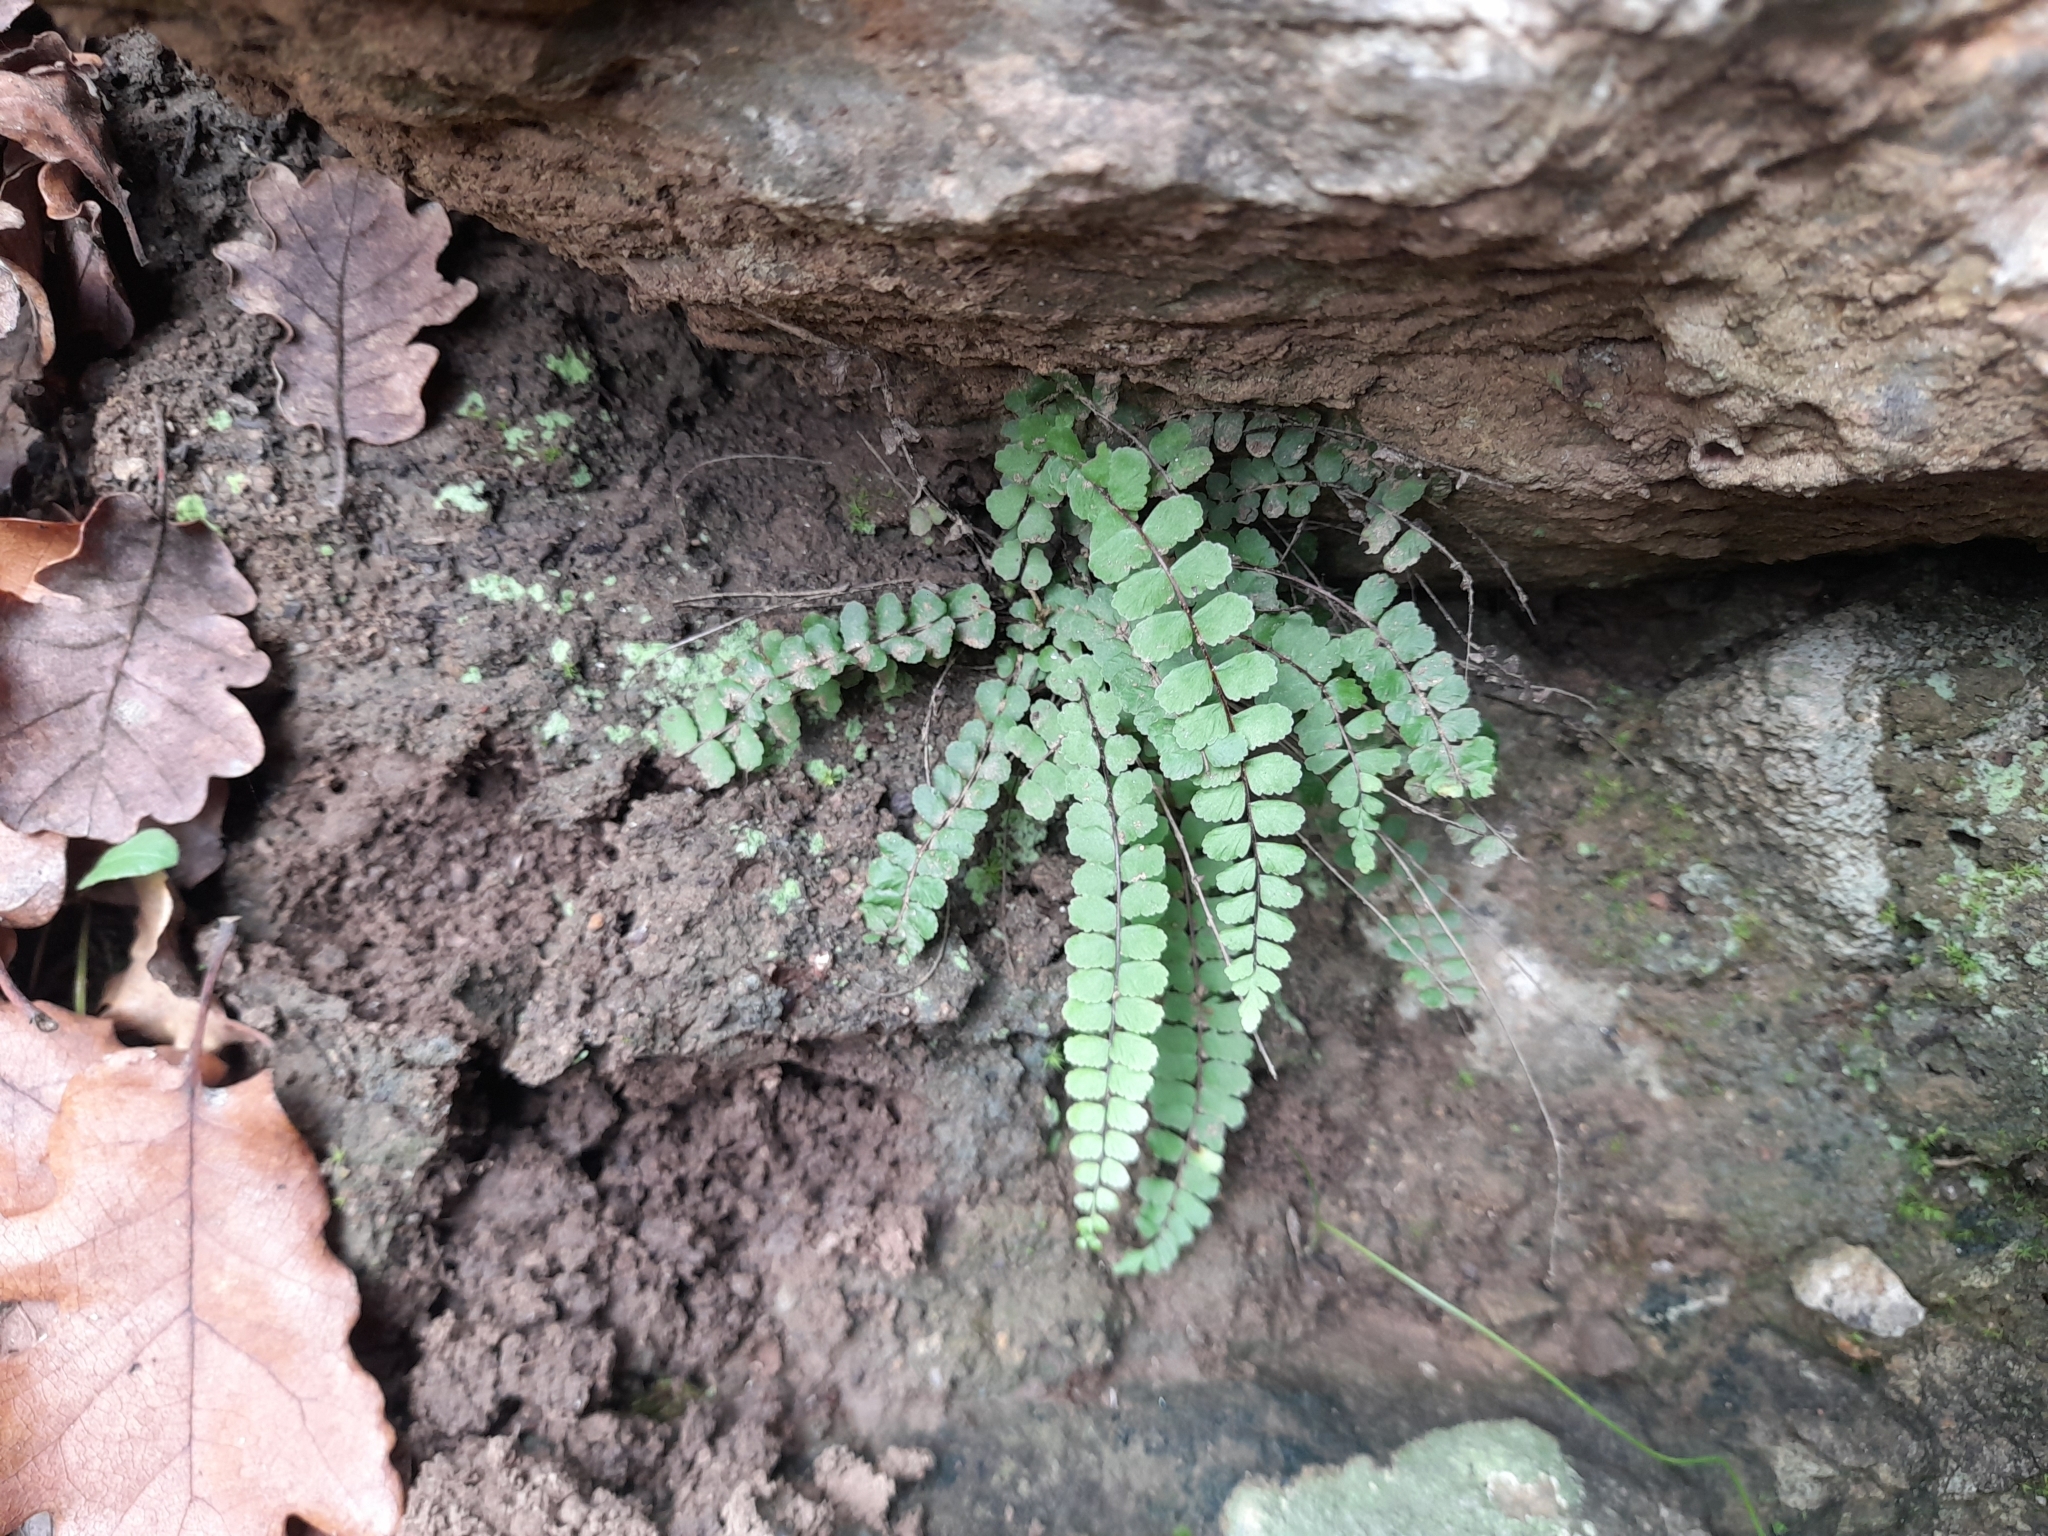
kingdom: Plantae
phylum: Tracheophyta
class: Polypodiopsida
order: Polypodiales
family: Aspleniaceae
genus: Asplenium
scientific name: Asplenium trichomanes
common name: Maidenhair spleenwort
